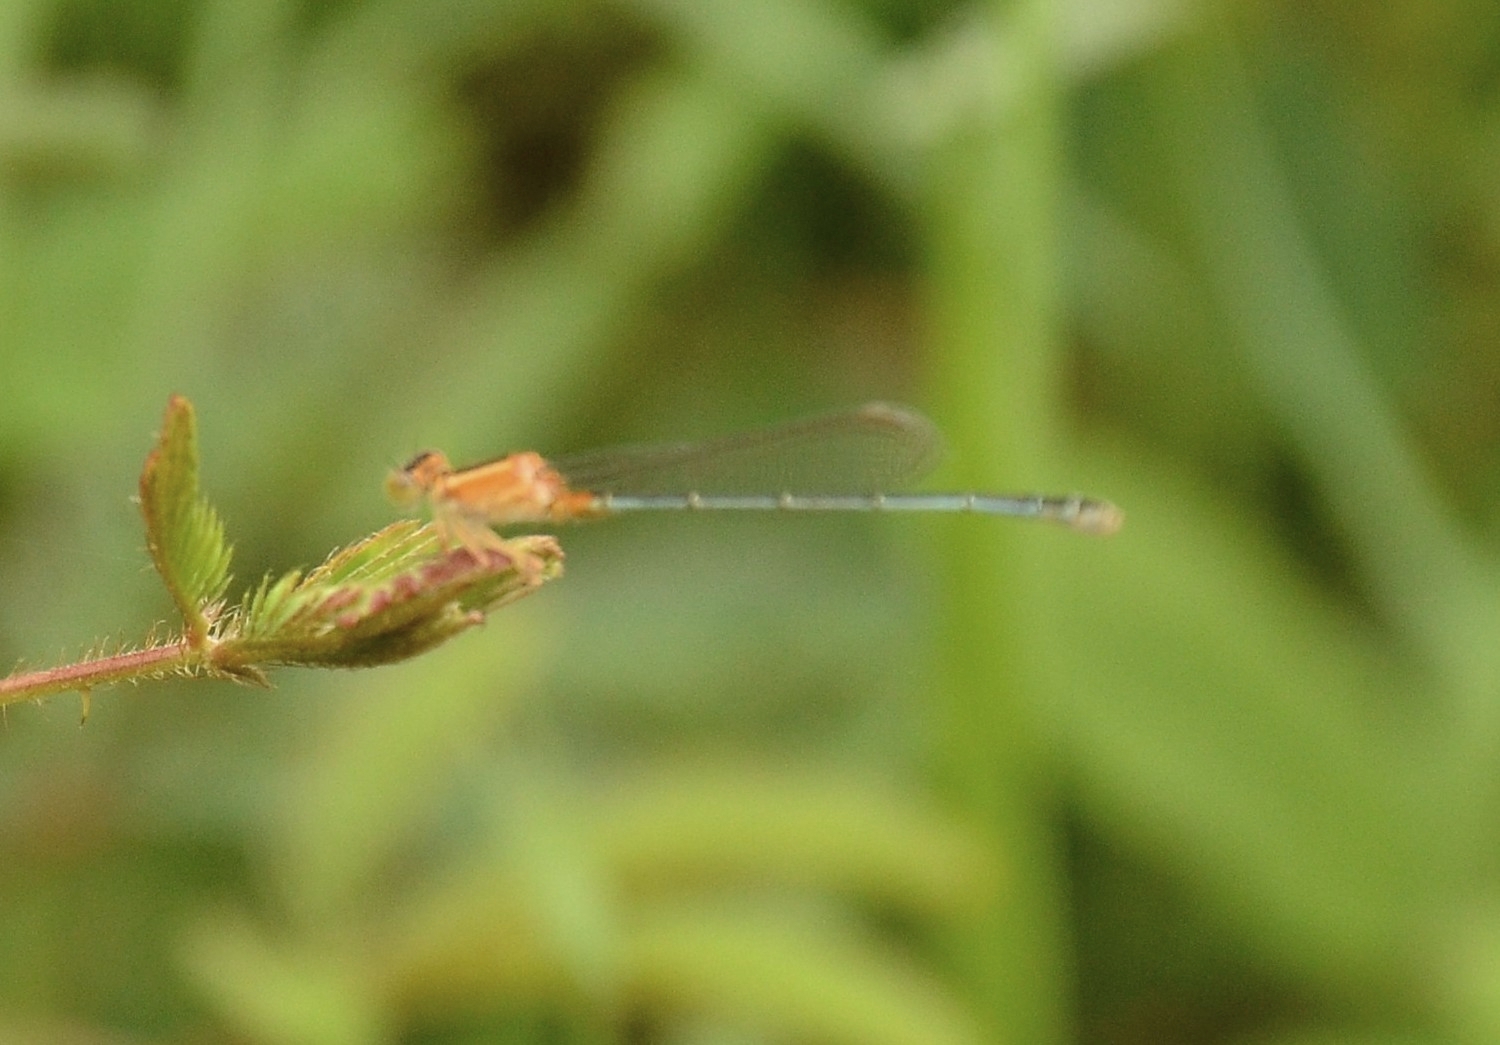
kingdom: Animalia
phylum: Arthropoda
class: Insecta
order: Odonata
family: Coenagrionidae
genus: Ischnura
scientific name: Ischnura senegalensis
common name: Tropical bluetail
